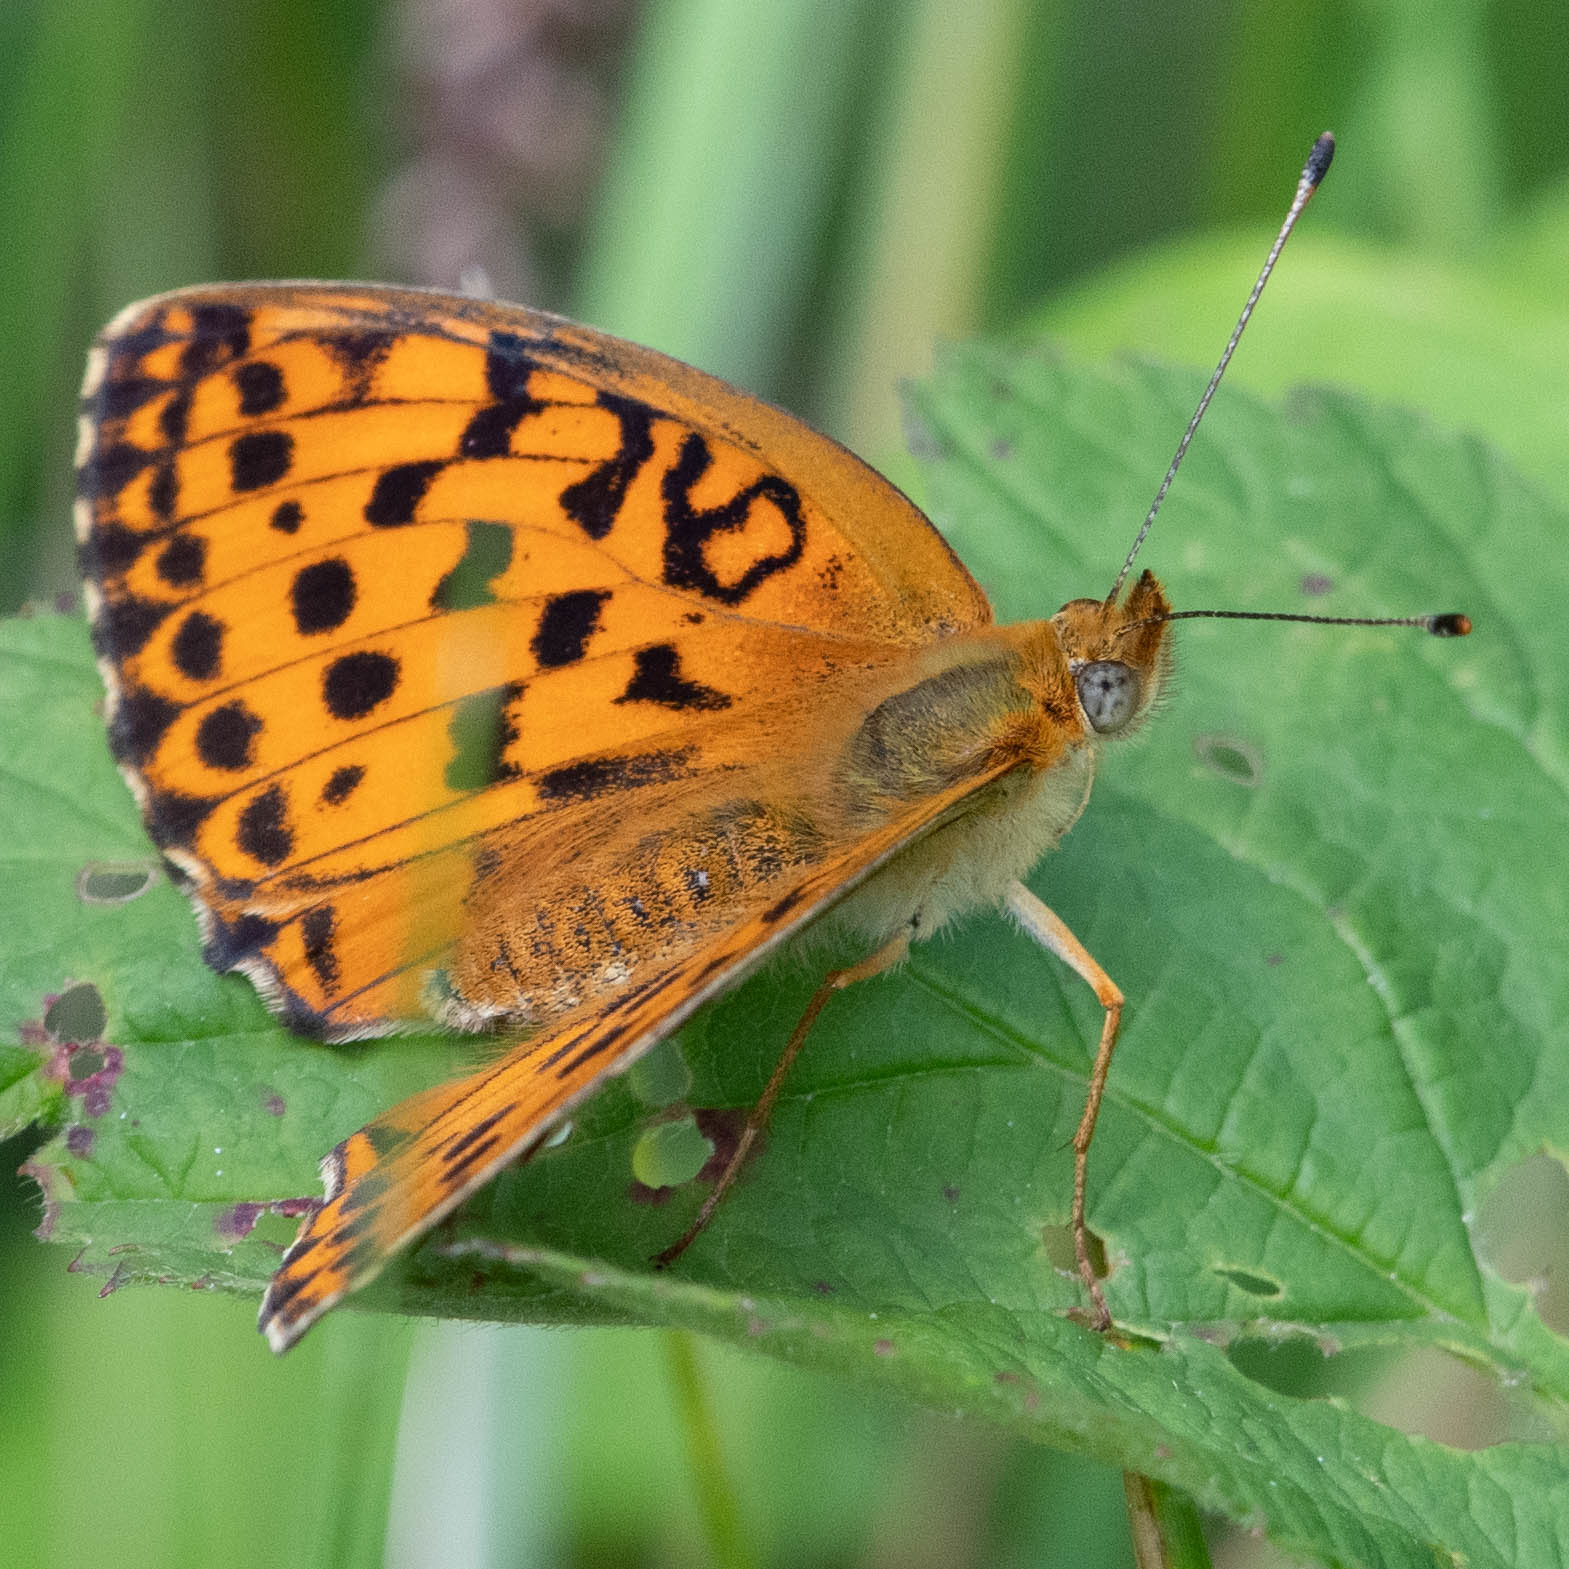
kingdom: Animalia
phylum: Arthropoda
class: Insecta
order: Lepidoptera
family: Nymphalidae
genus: Brenthis
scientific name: Brenthis daphne
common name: Marbled fritillary
